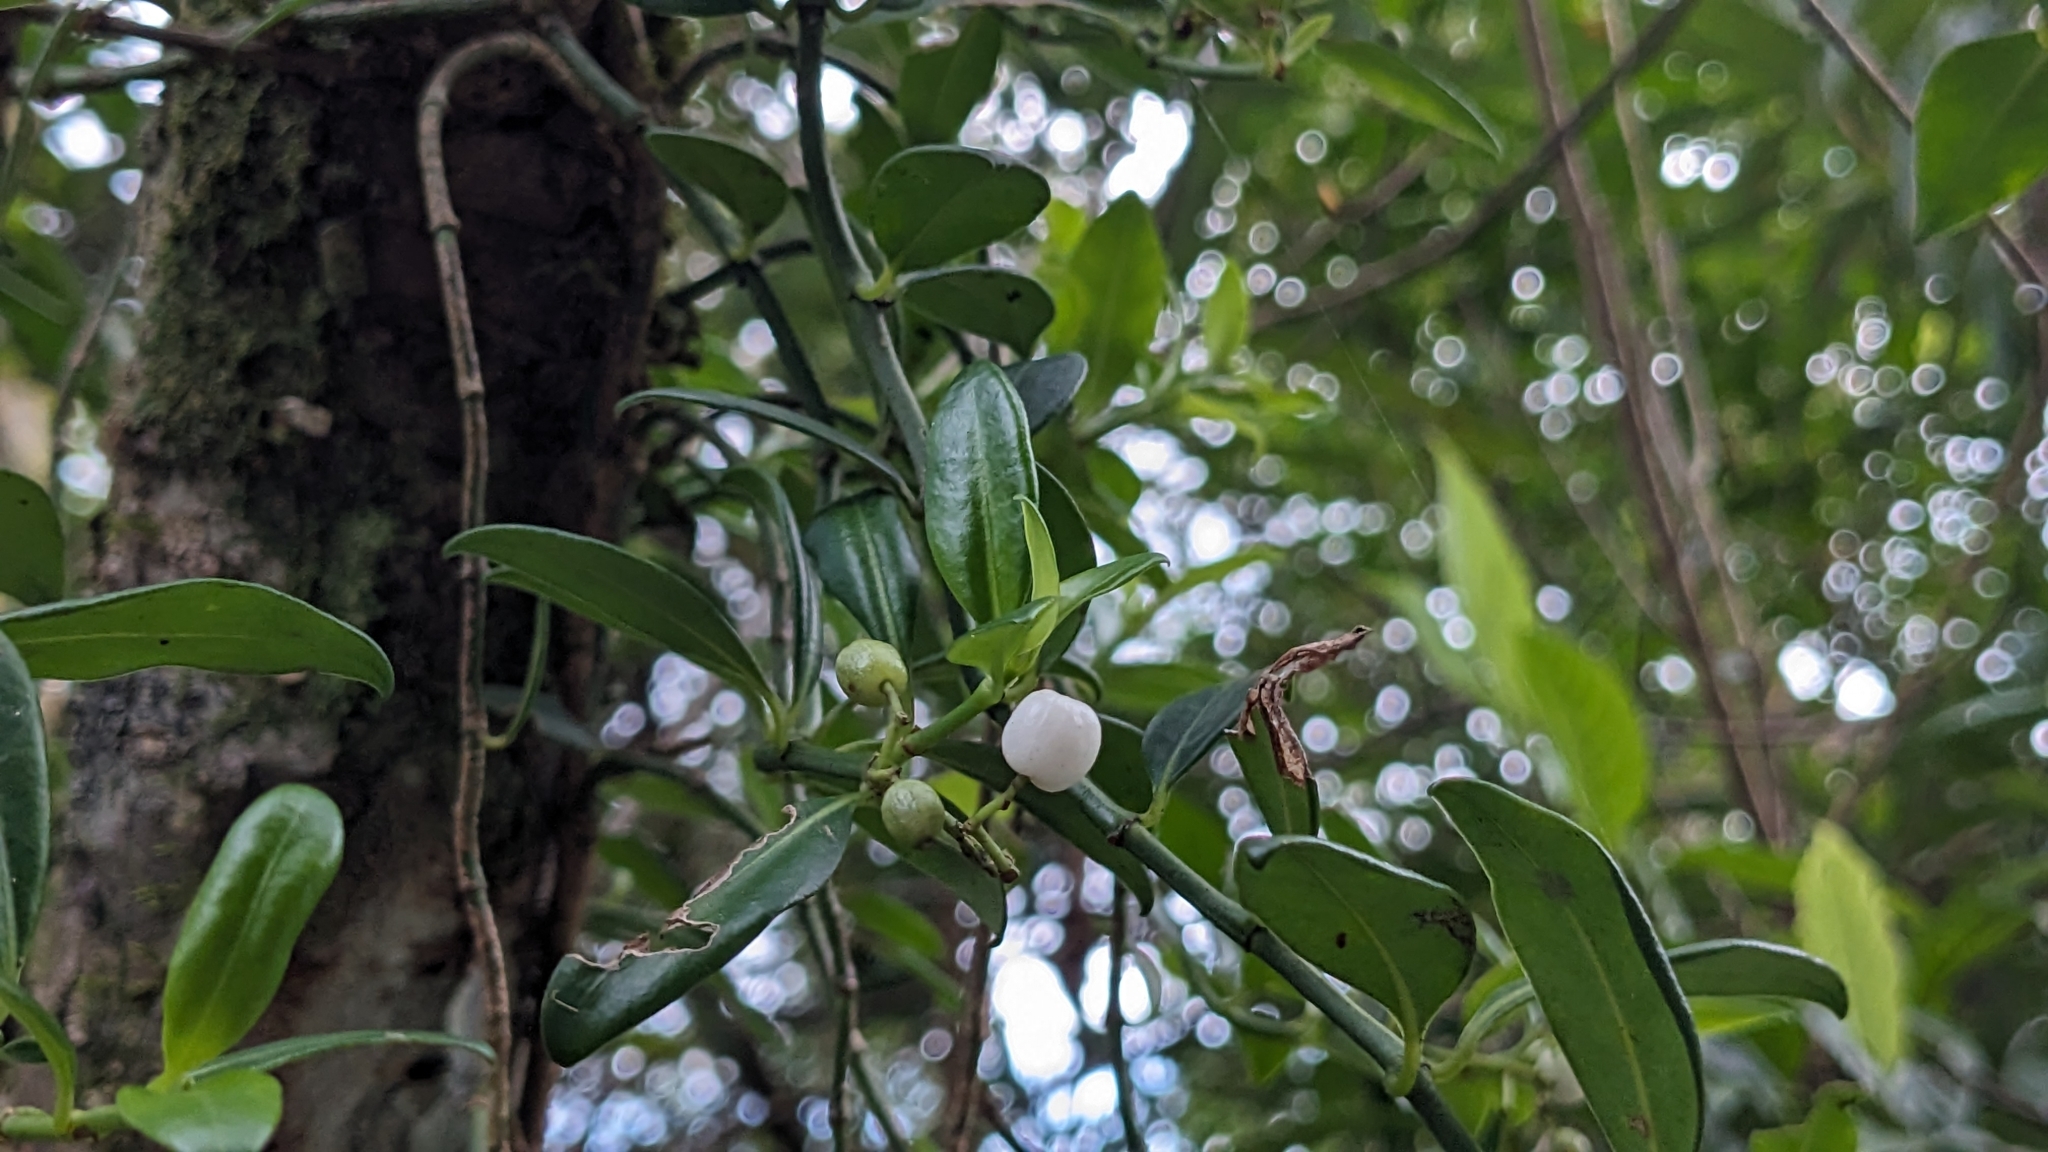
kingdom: Plantae
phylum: Tracheophyta
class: Magnoliopsida
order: Gentianales
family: Rubiaceae
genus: Psychotria
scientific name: Psychotria serpens
